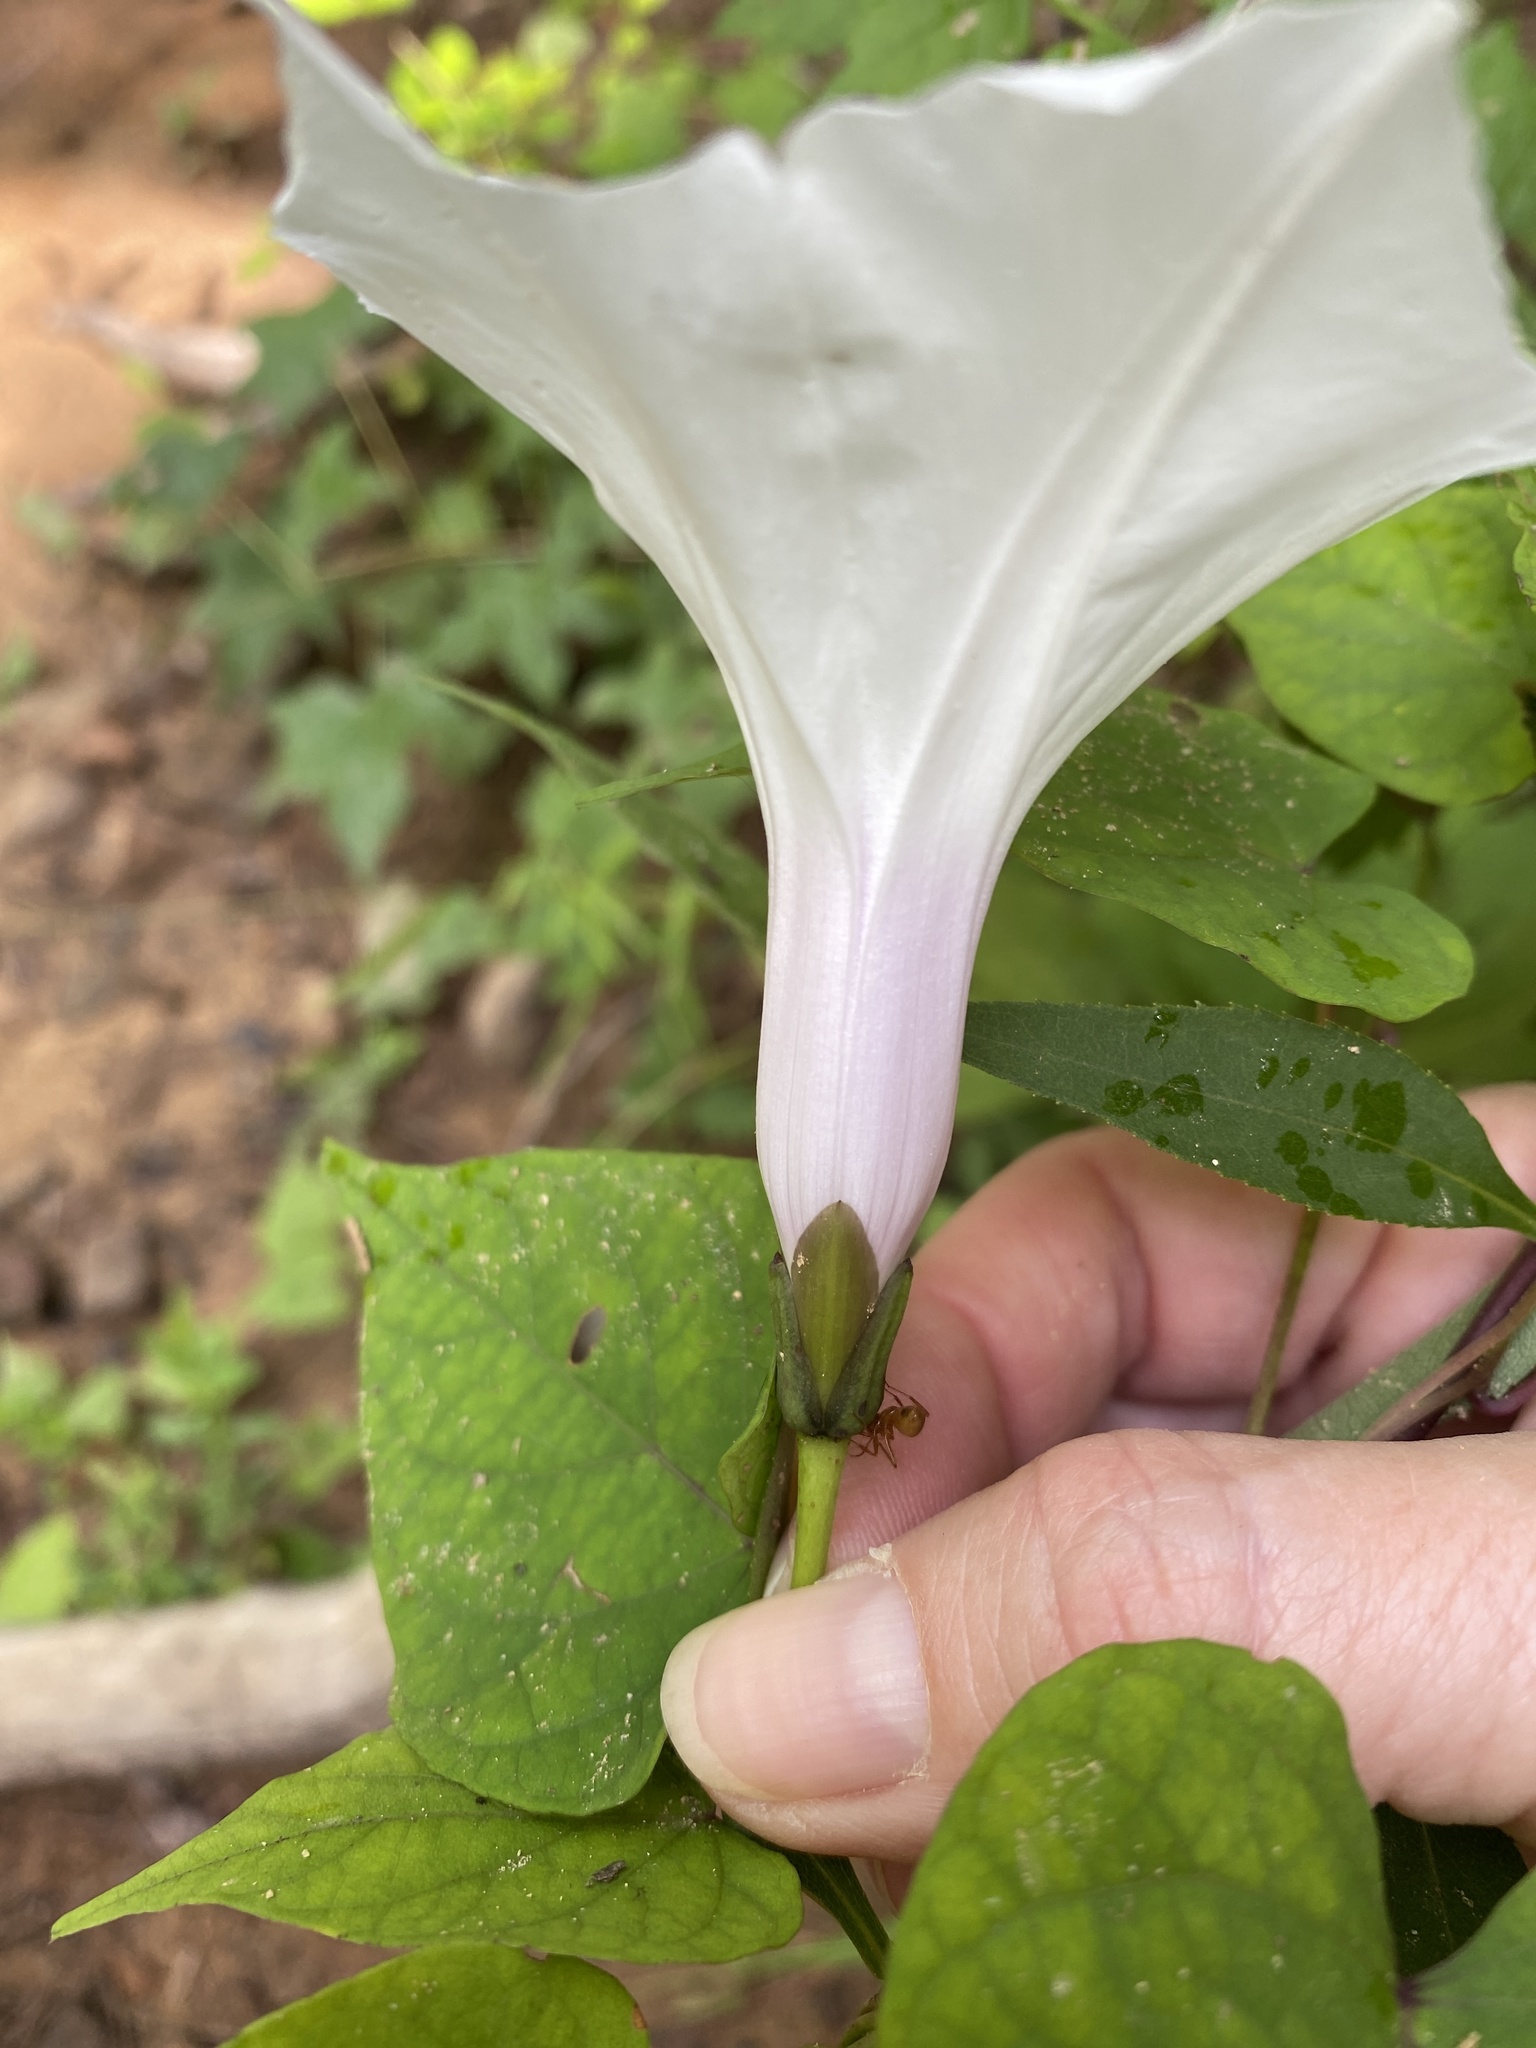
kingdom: Plantae
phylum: Tracheophyta
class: Magnoliopsida
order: Solanales
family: Convolvulaceae
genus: Ipomoea
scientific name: Ipomoea pandurata
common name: Man-of-the-earth
